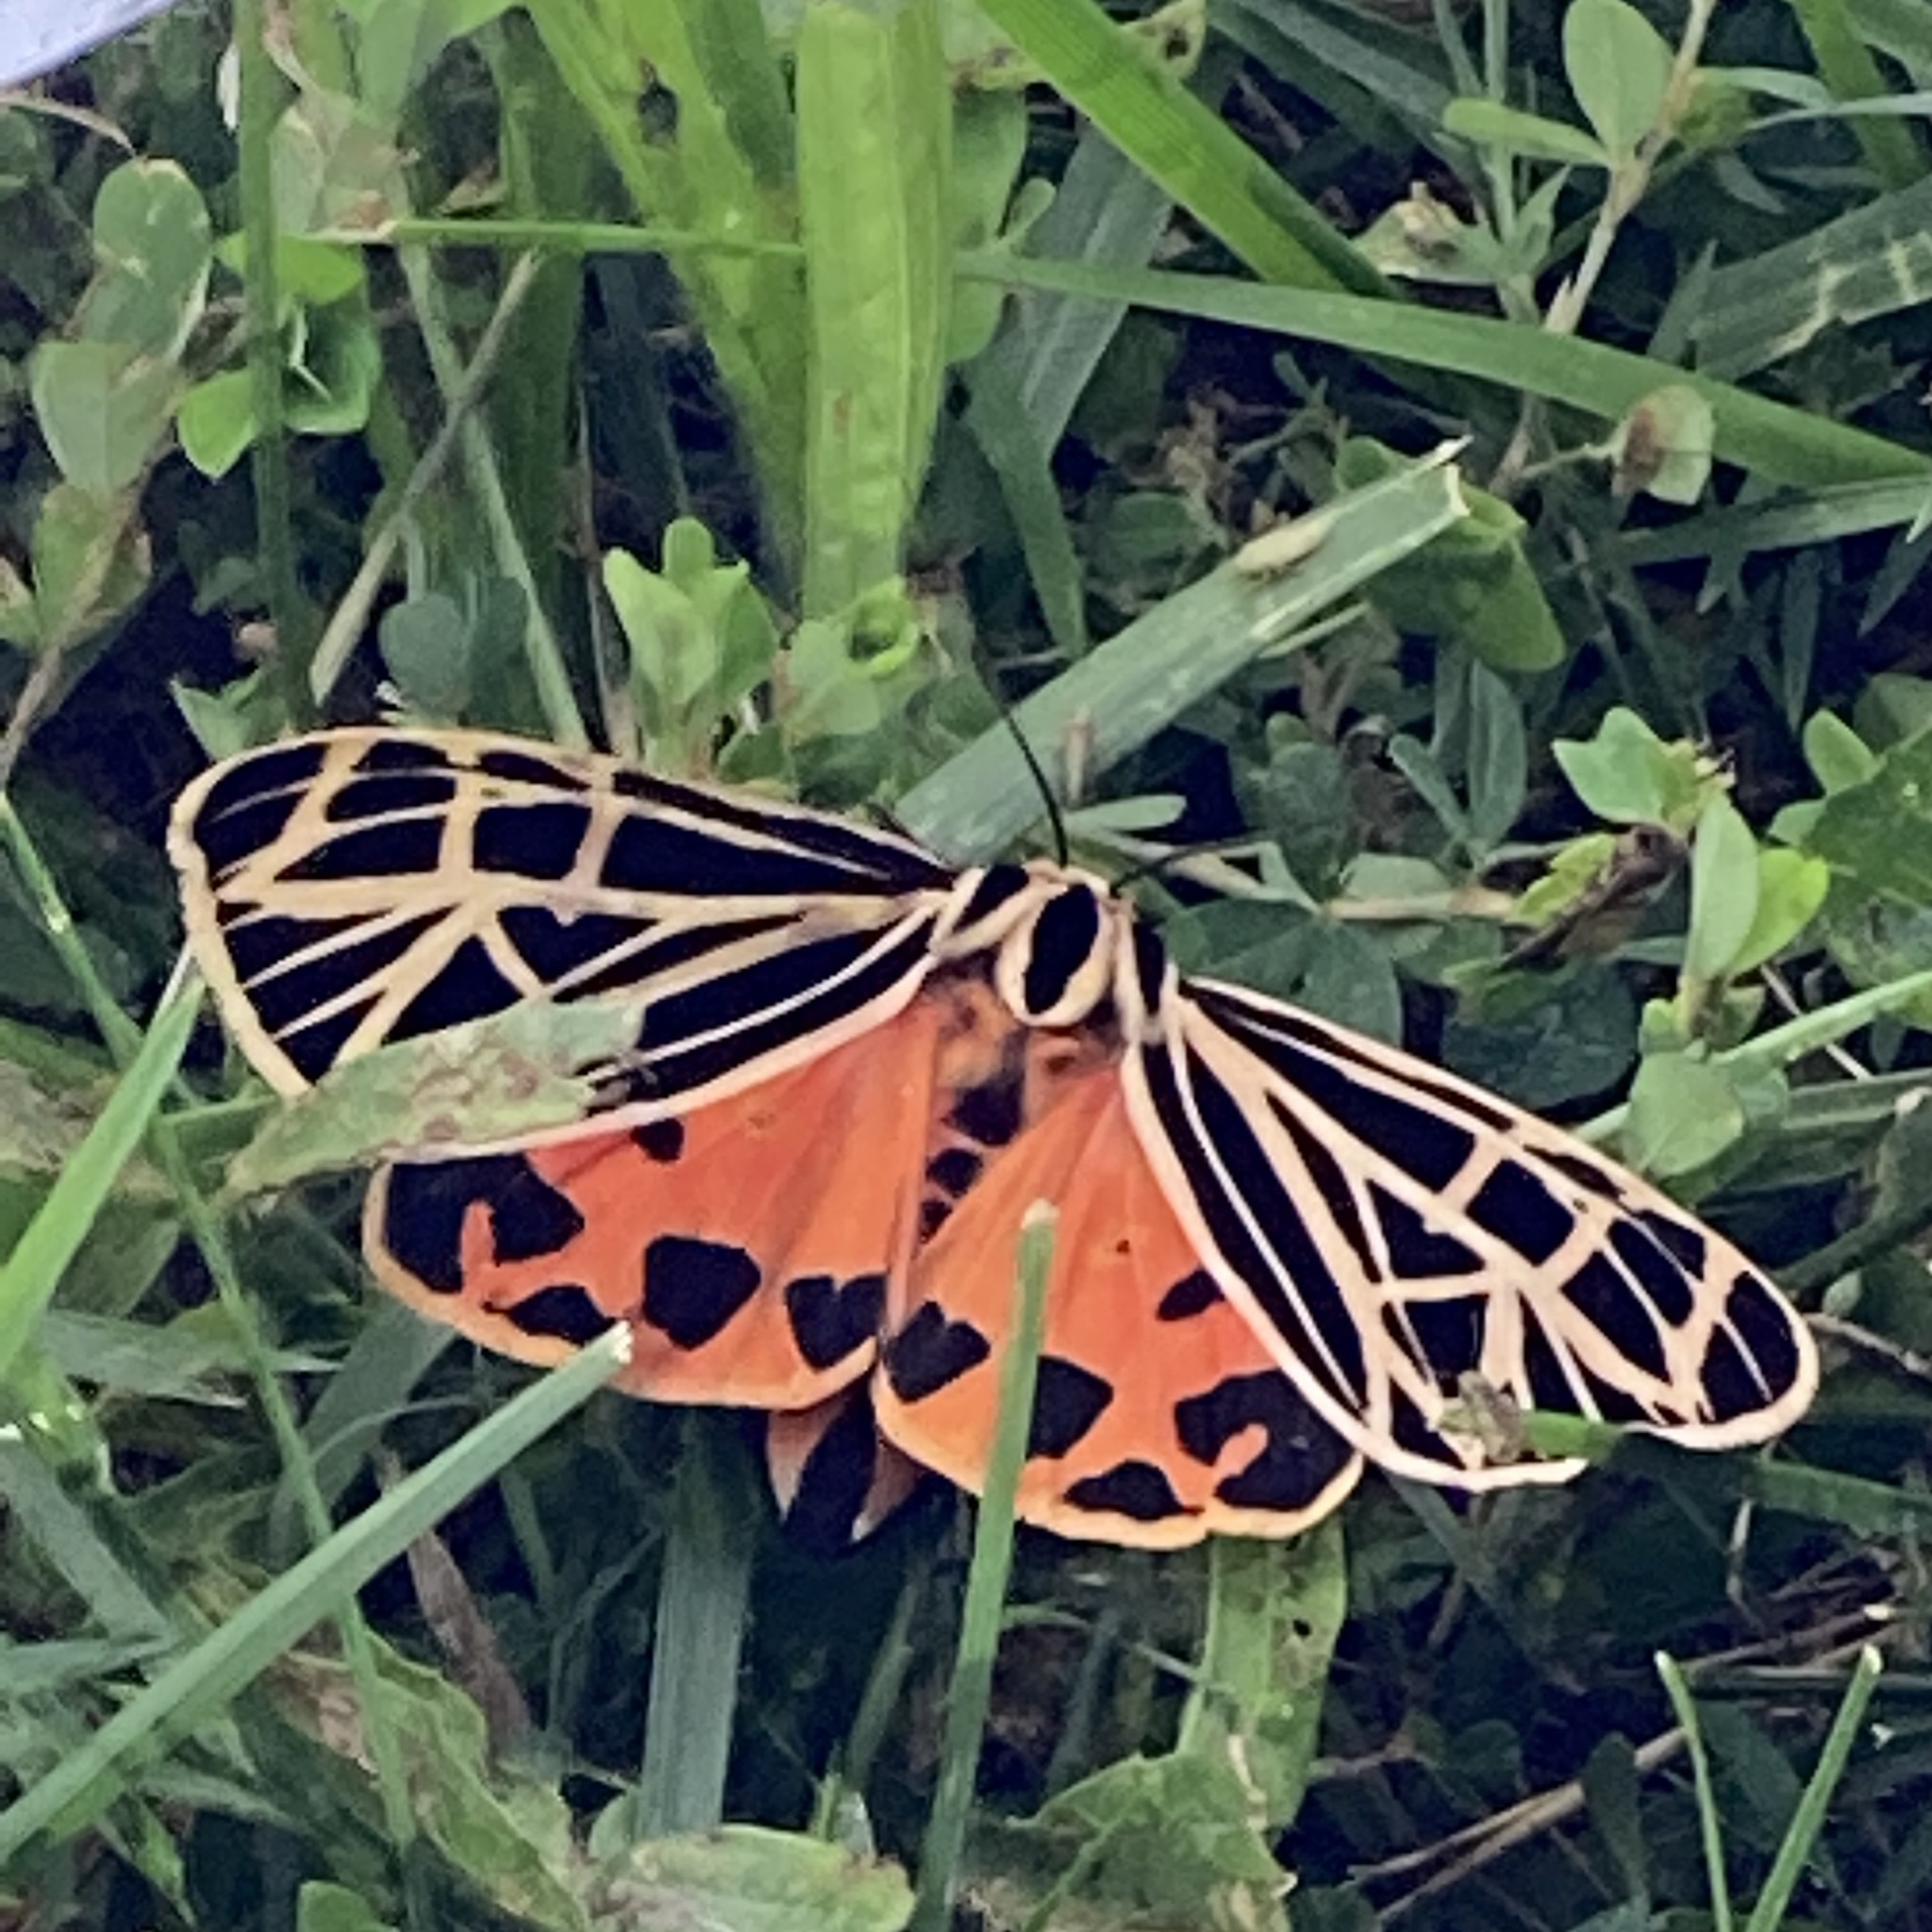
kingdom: Animalia
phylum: Arthropoda
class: Insecta
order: Lepidoptera
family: Erebidae
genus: Grammia
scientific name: Grammia virgo
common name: Virgin tiger moth
